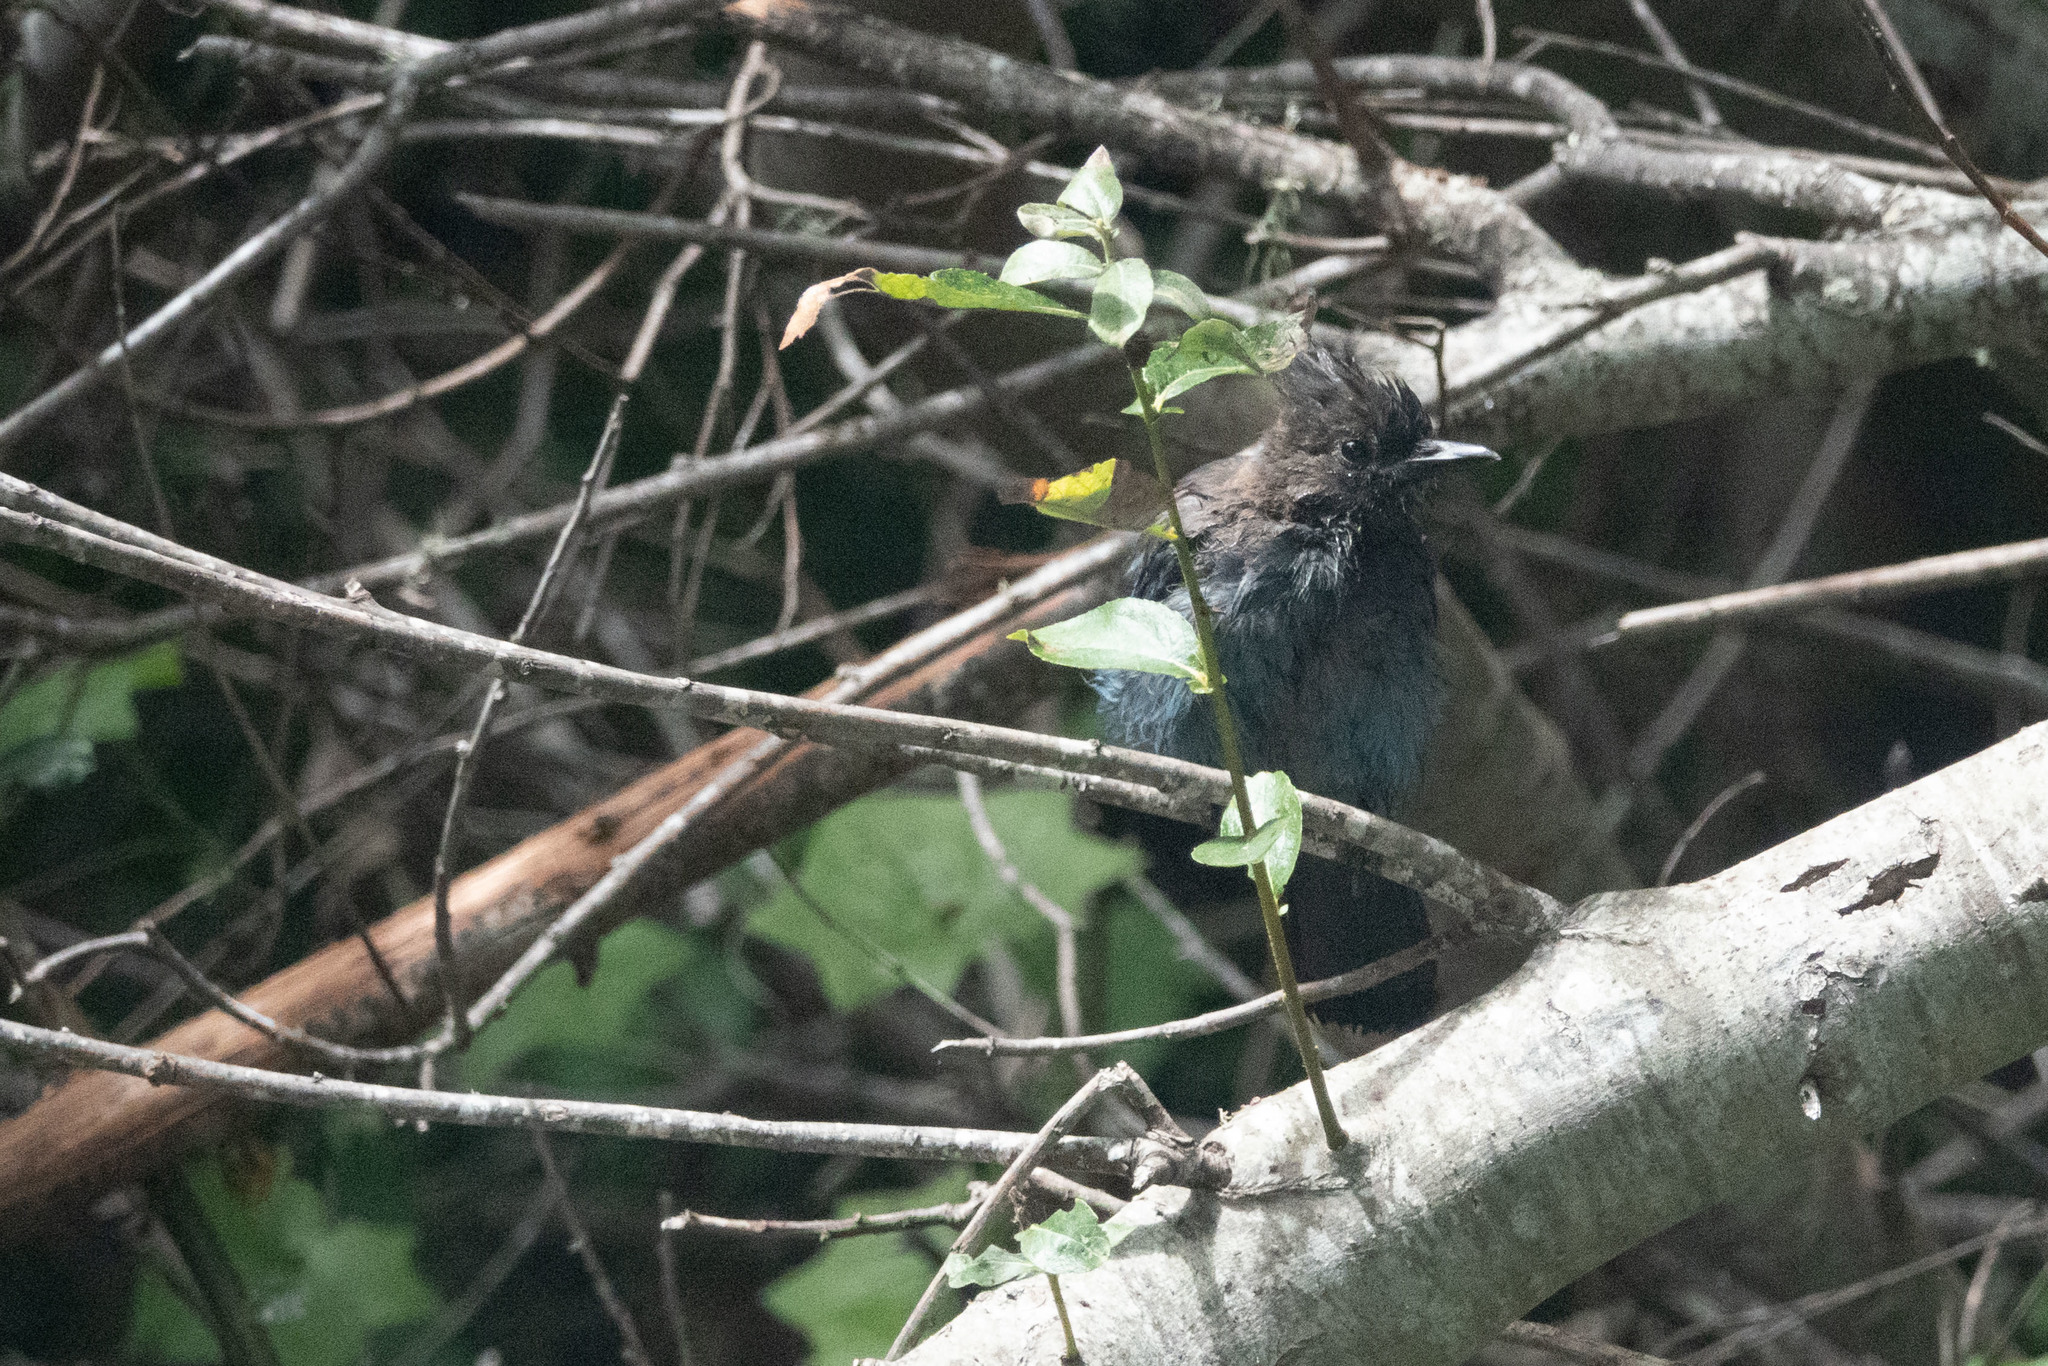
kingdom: Animalia
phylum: Chordata
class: Aves
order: Passeriformes
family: Corvidae
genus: Cyanocitta
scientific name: Cyanocitta stelleri
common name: Steller's jay
